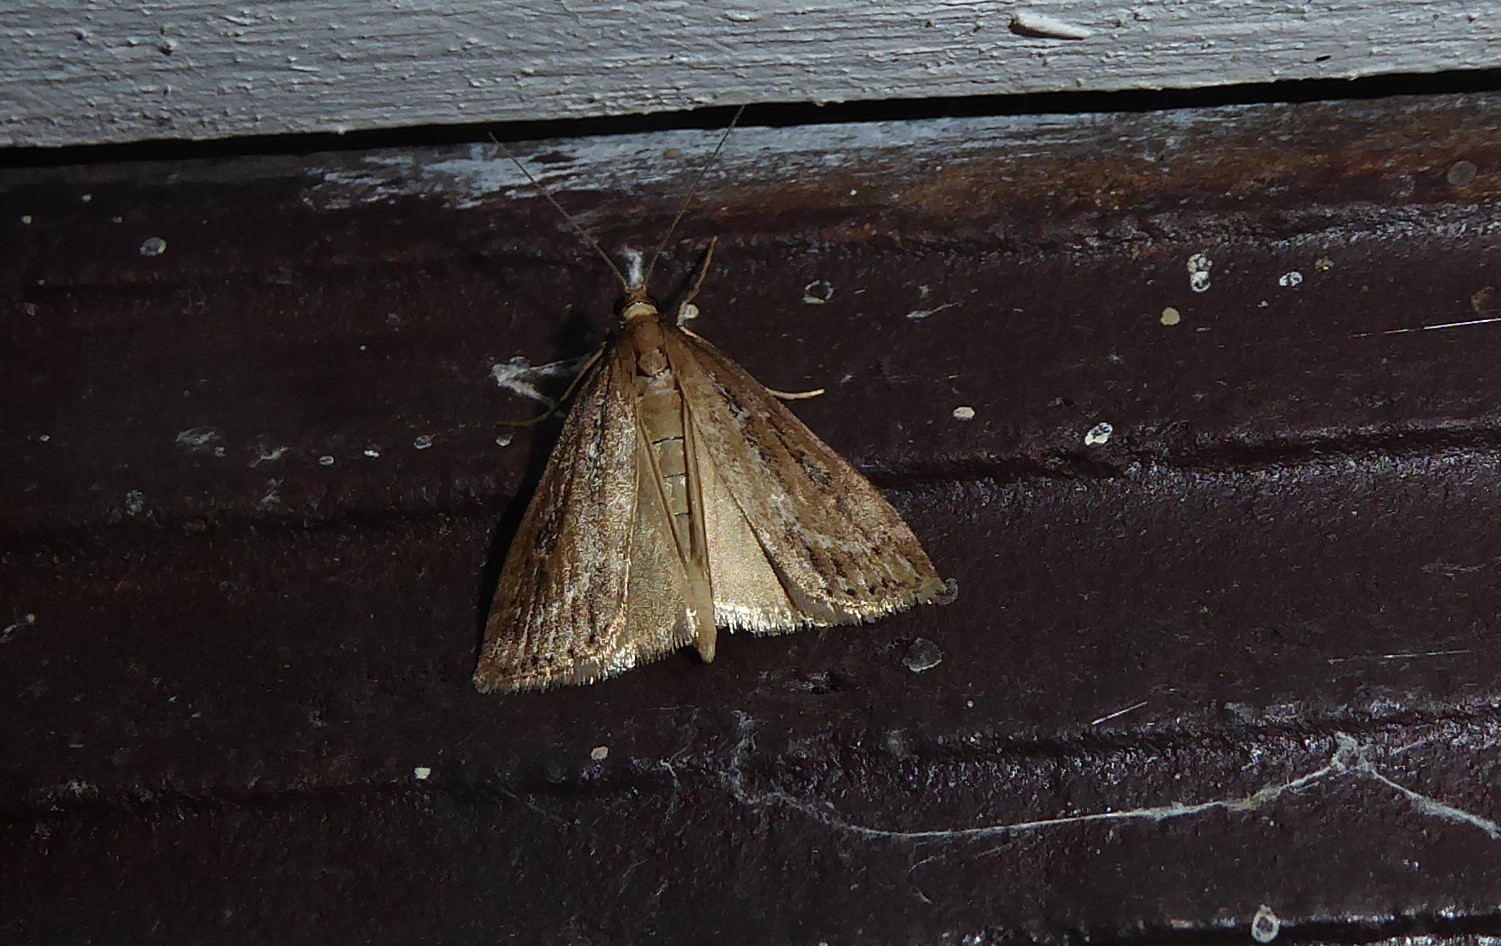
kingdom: Animalia
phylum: Arthropoda
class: Insecta
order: Lepidoptera
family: Crambidae
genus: Eudonia
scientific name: Eudonia octophora
